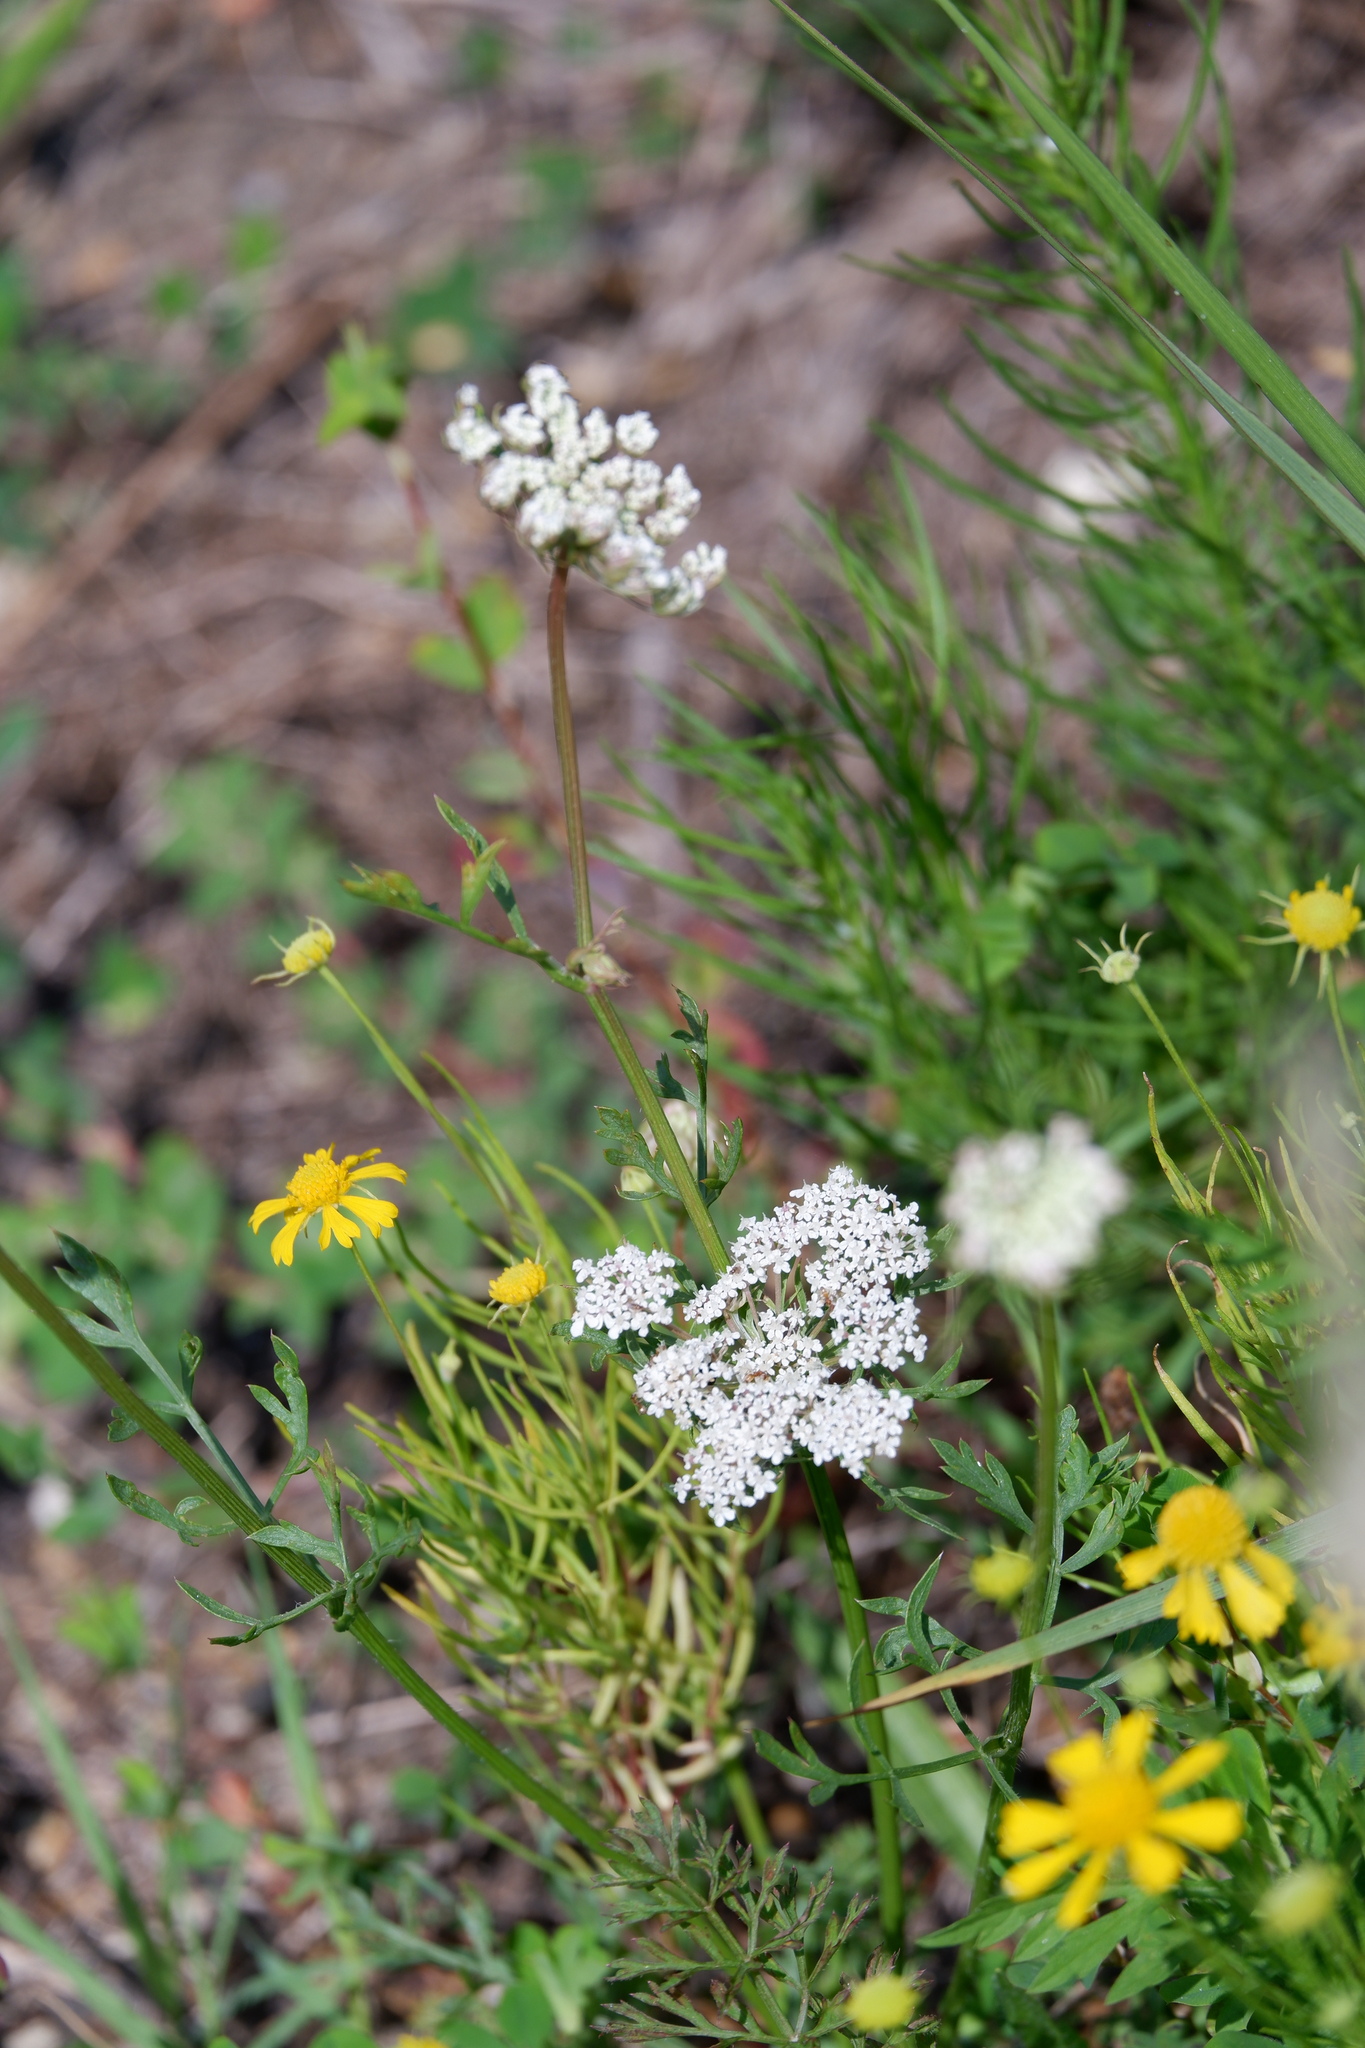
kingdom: Plantae
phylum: Tracheophyta
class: Magnoliopsida
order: Apiales
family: Apiaceae
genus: Daucus
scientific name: Daucus carota
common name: Wild carrot
